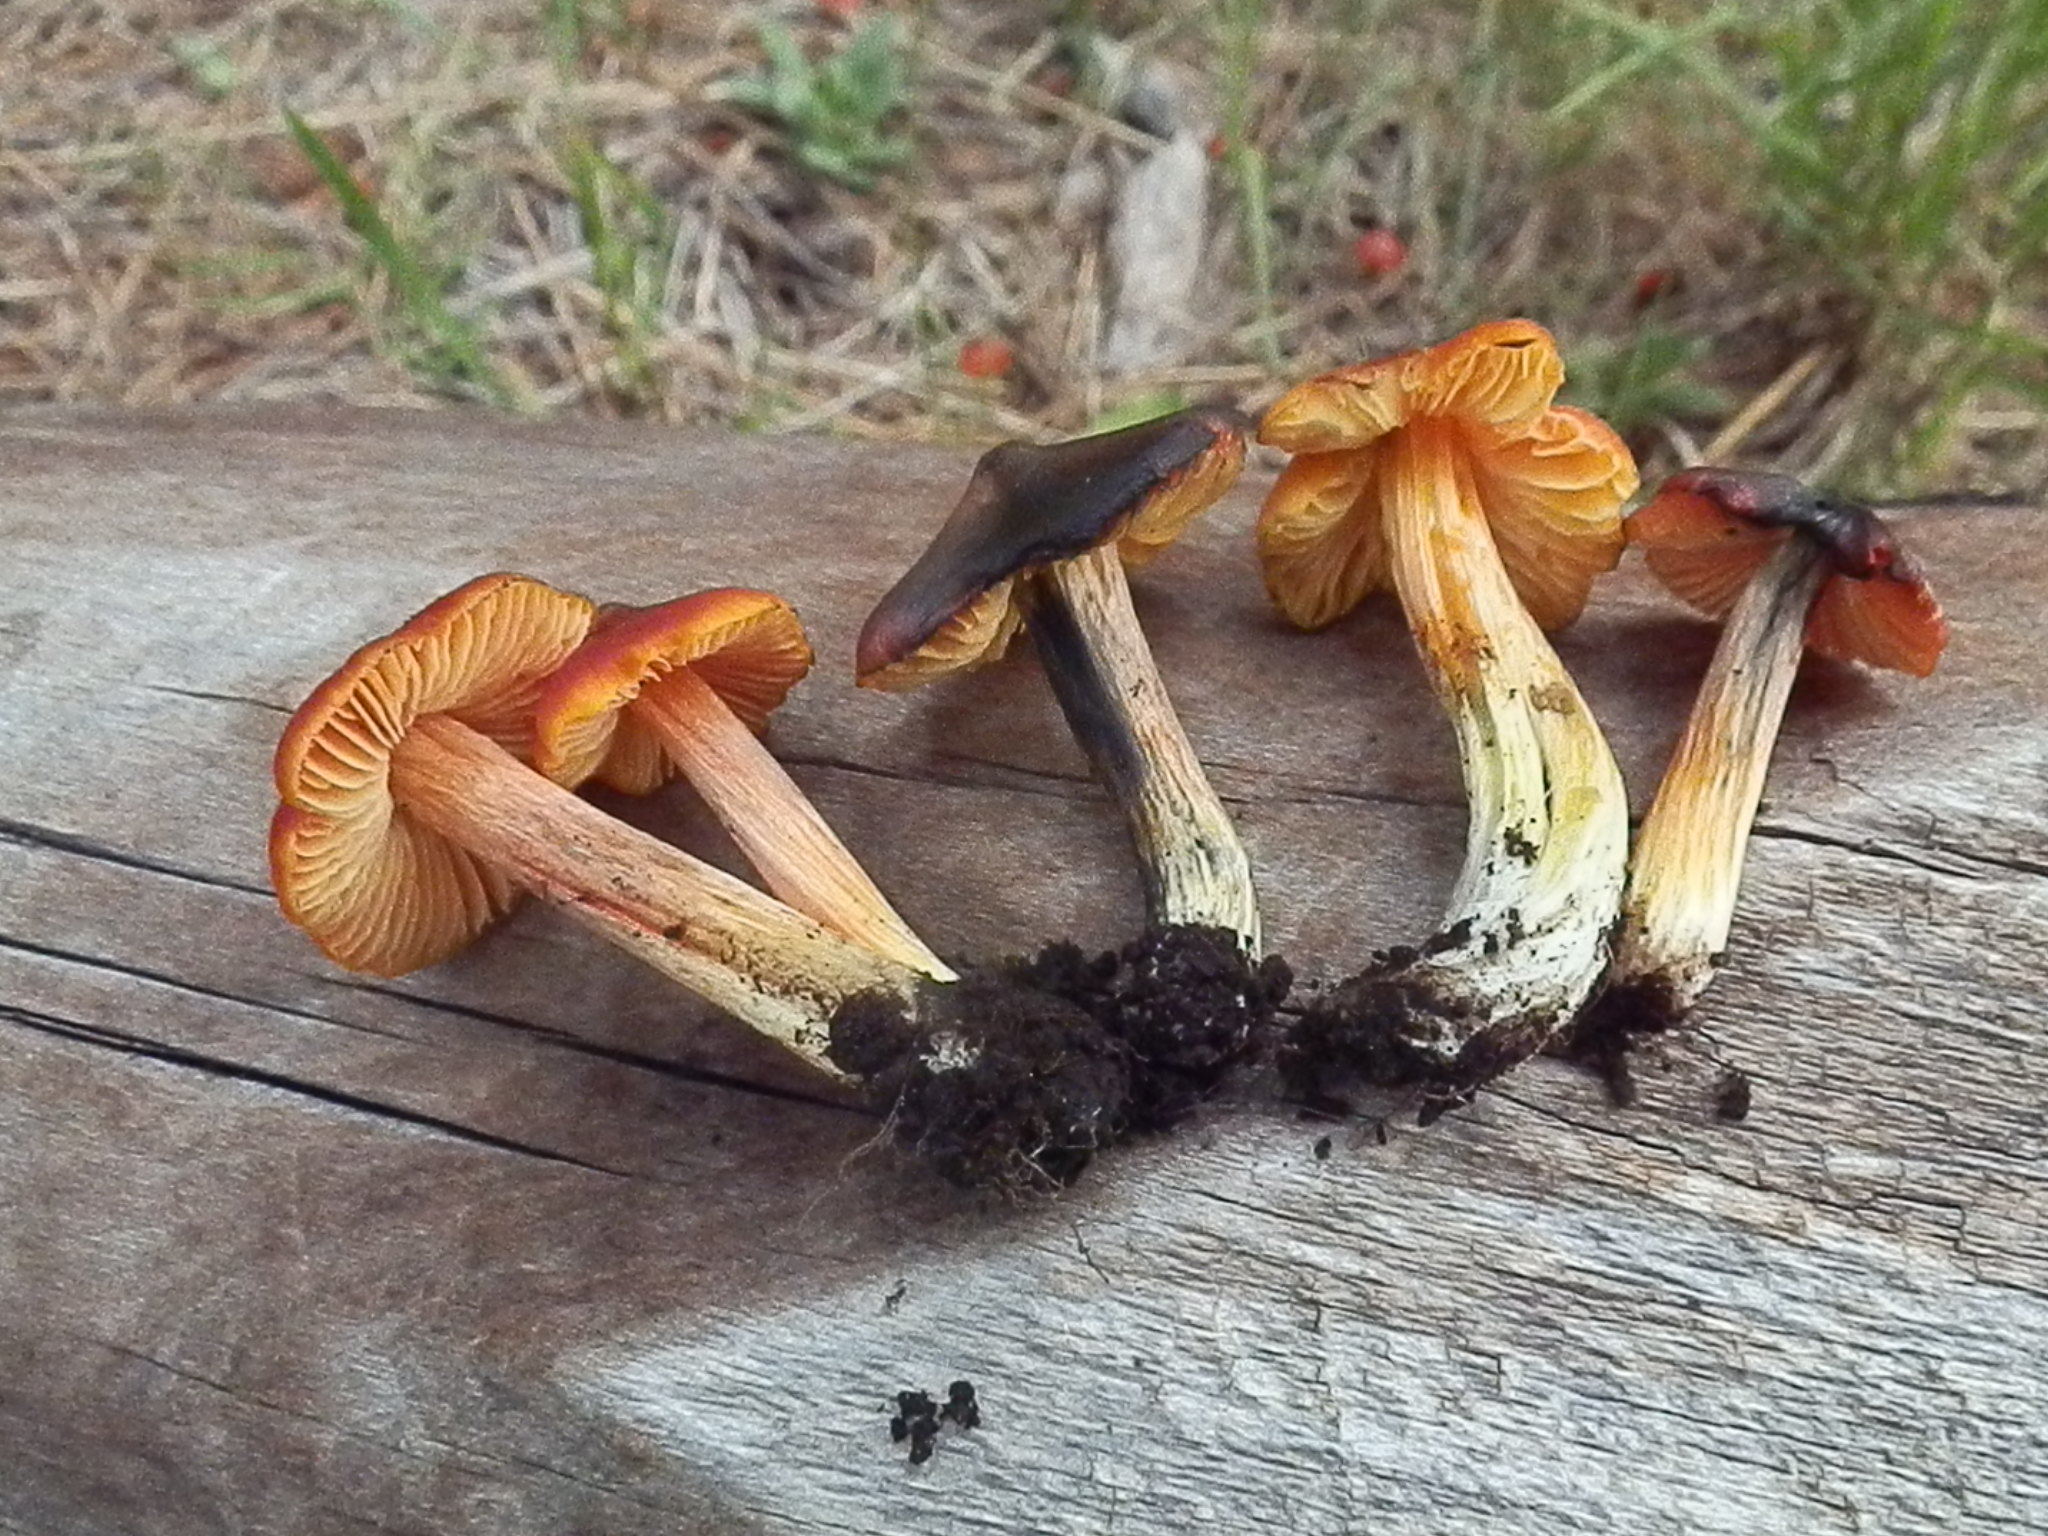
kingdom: Fungi
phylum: Basidiomycota
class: Agaricomycetes
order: Agaricales
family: Hygrophoraceae
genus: Hygrocybe
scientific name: Hygrocybe conica
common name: Blackening wax-cap
